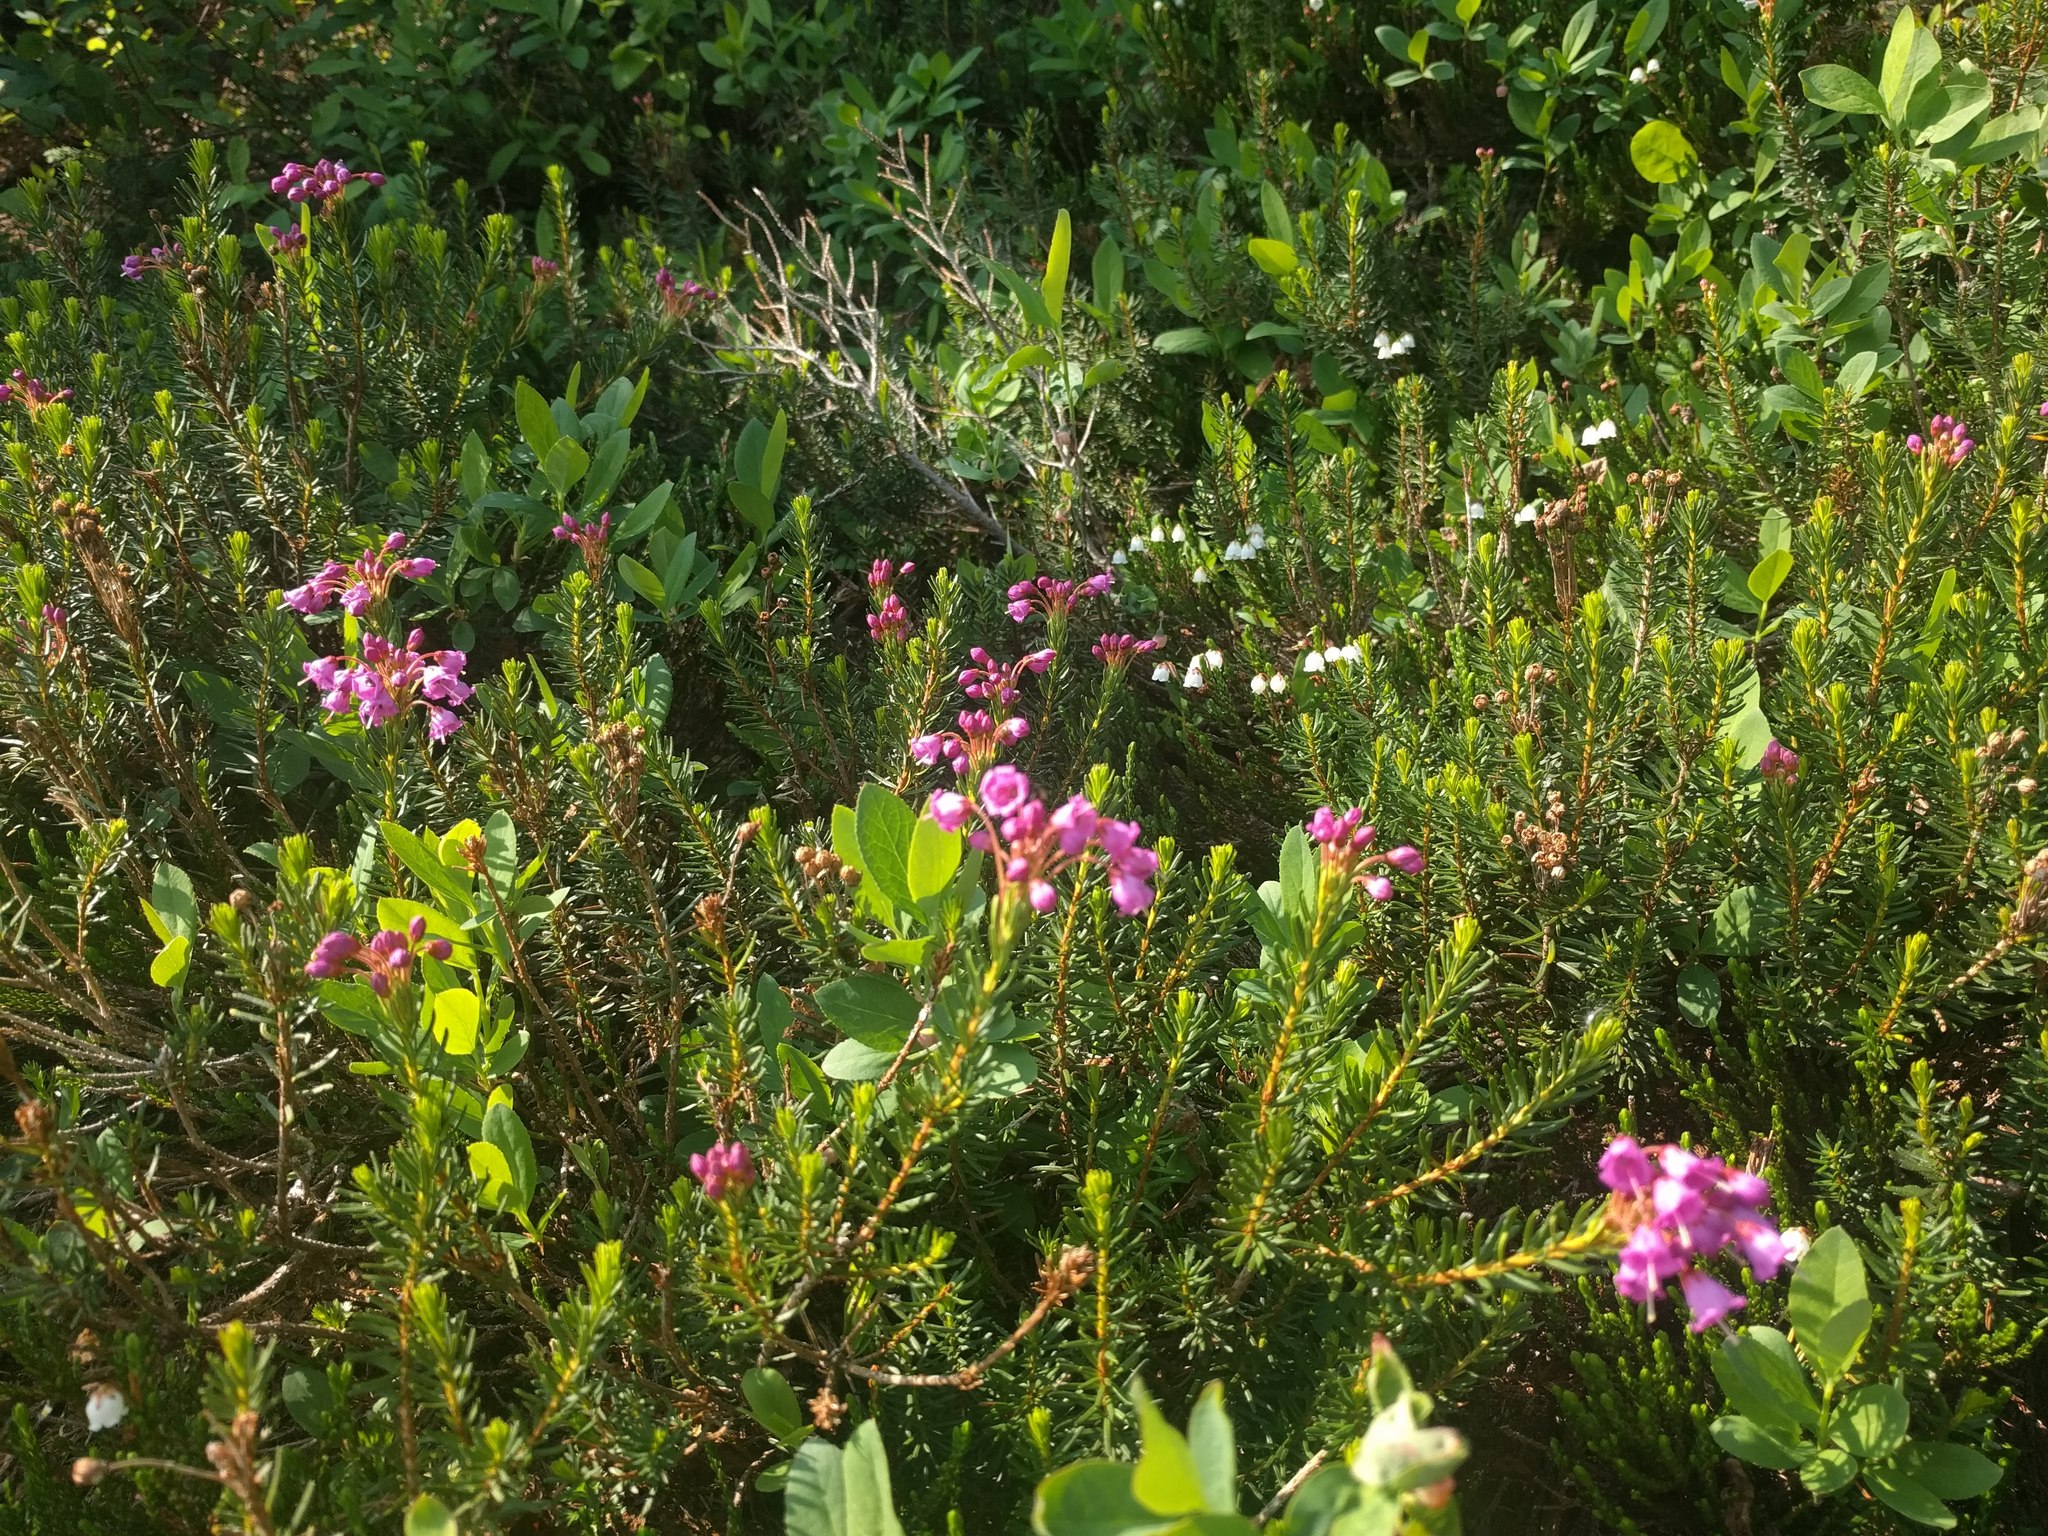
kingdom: Plantae
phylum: Tracheophyta
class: Magnoliopsida
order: Ericales
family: Ericaceae
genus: Phyllodoce
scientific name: Phyllodoce empetriformis
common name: Pink mountain heather
